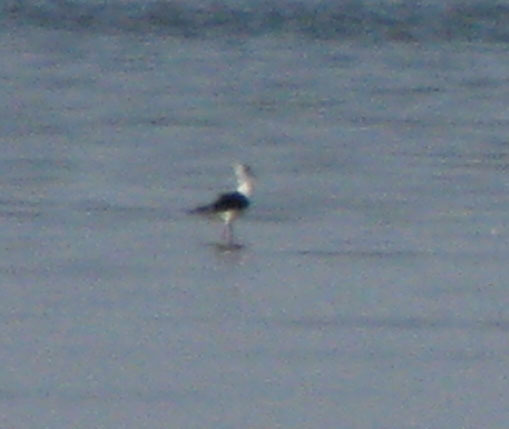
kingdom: Animalia
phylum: Chordata
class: Aves
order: Charadriiformes
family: Recurvirostridae
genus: Himantopus
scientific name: Himantopus himantopus
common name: Black-winged stilt
